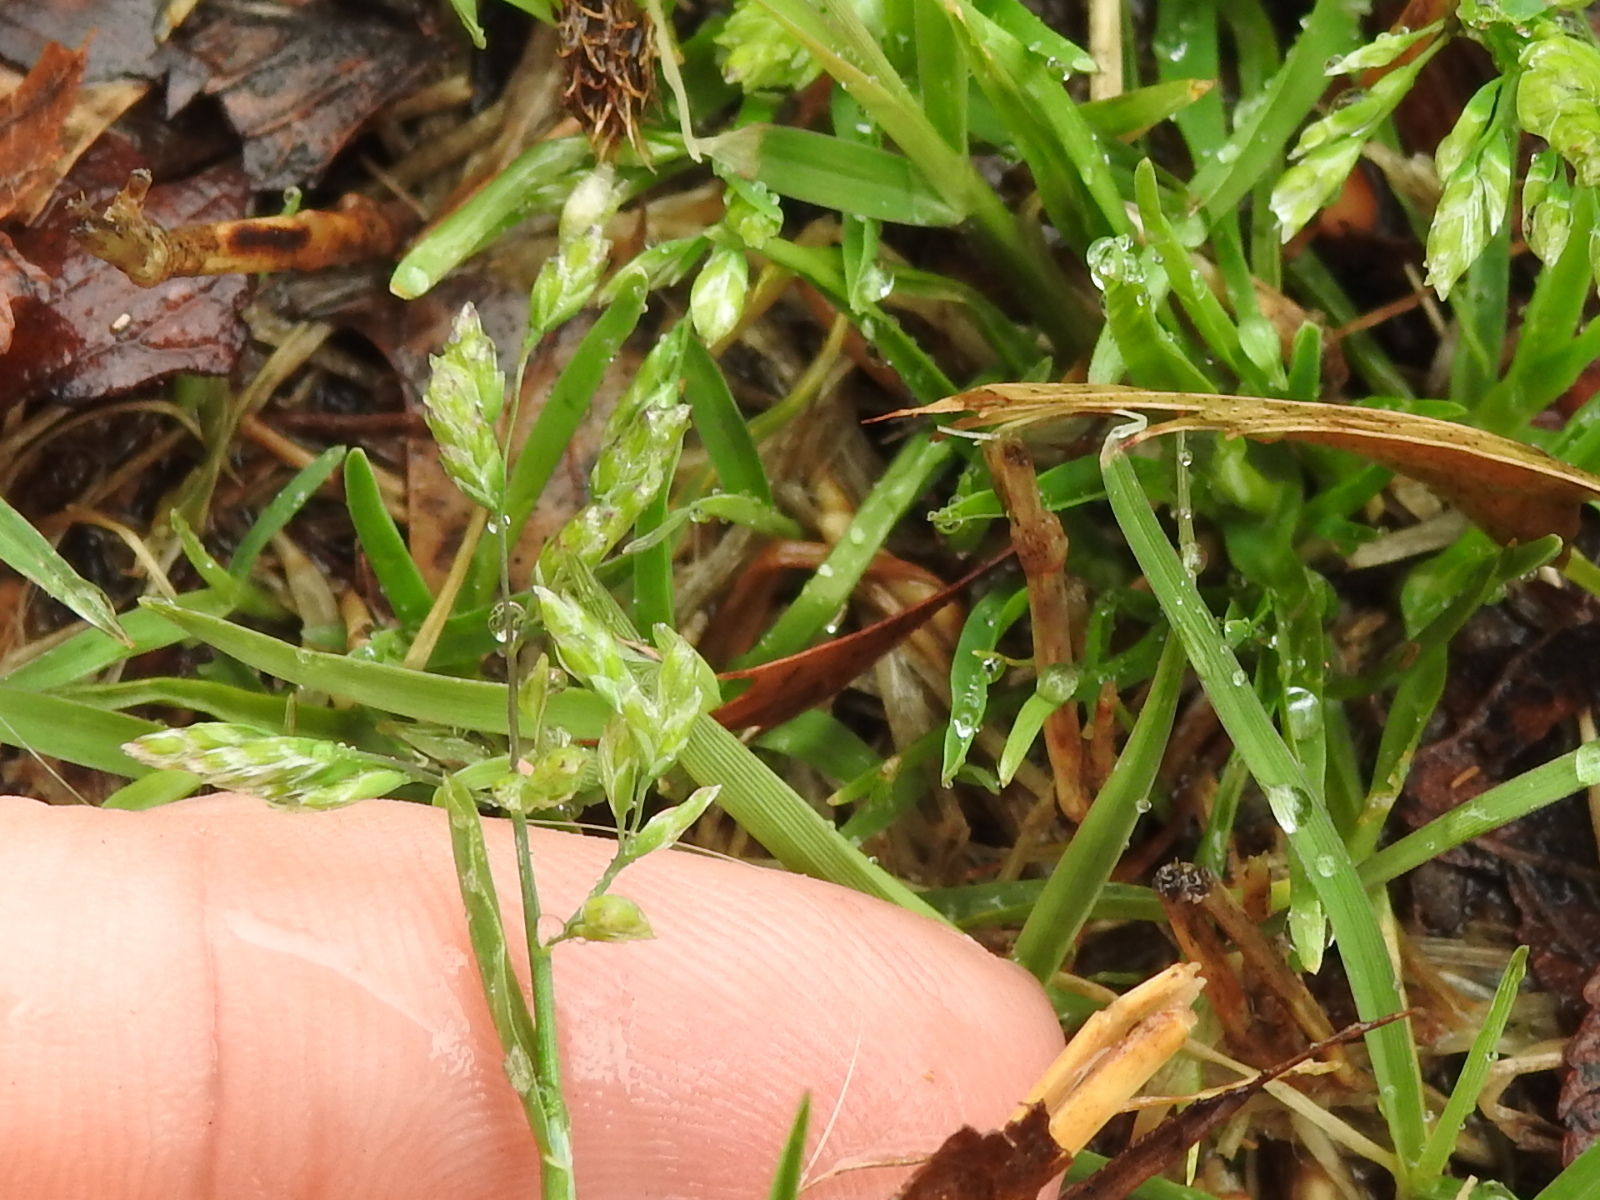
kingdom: Plantae
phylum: Tracheophyta
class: Liliopsida
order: Poales
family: Poaceae
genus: Poa
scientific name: Poa annua
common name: Annual bluegrass
